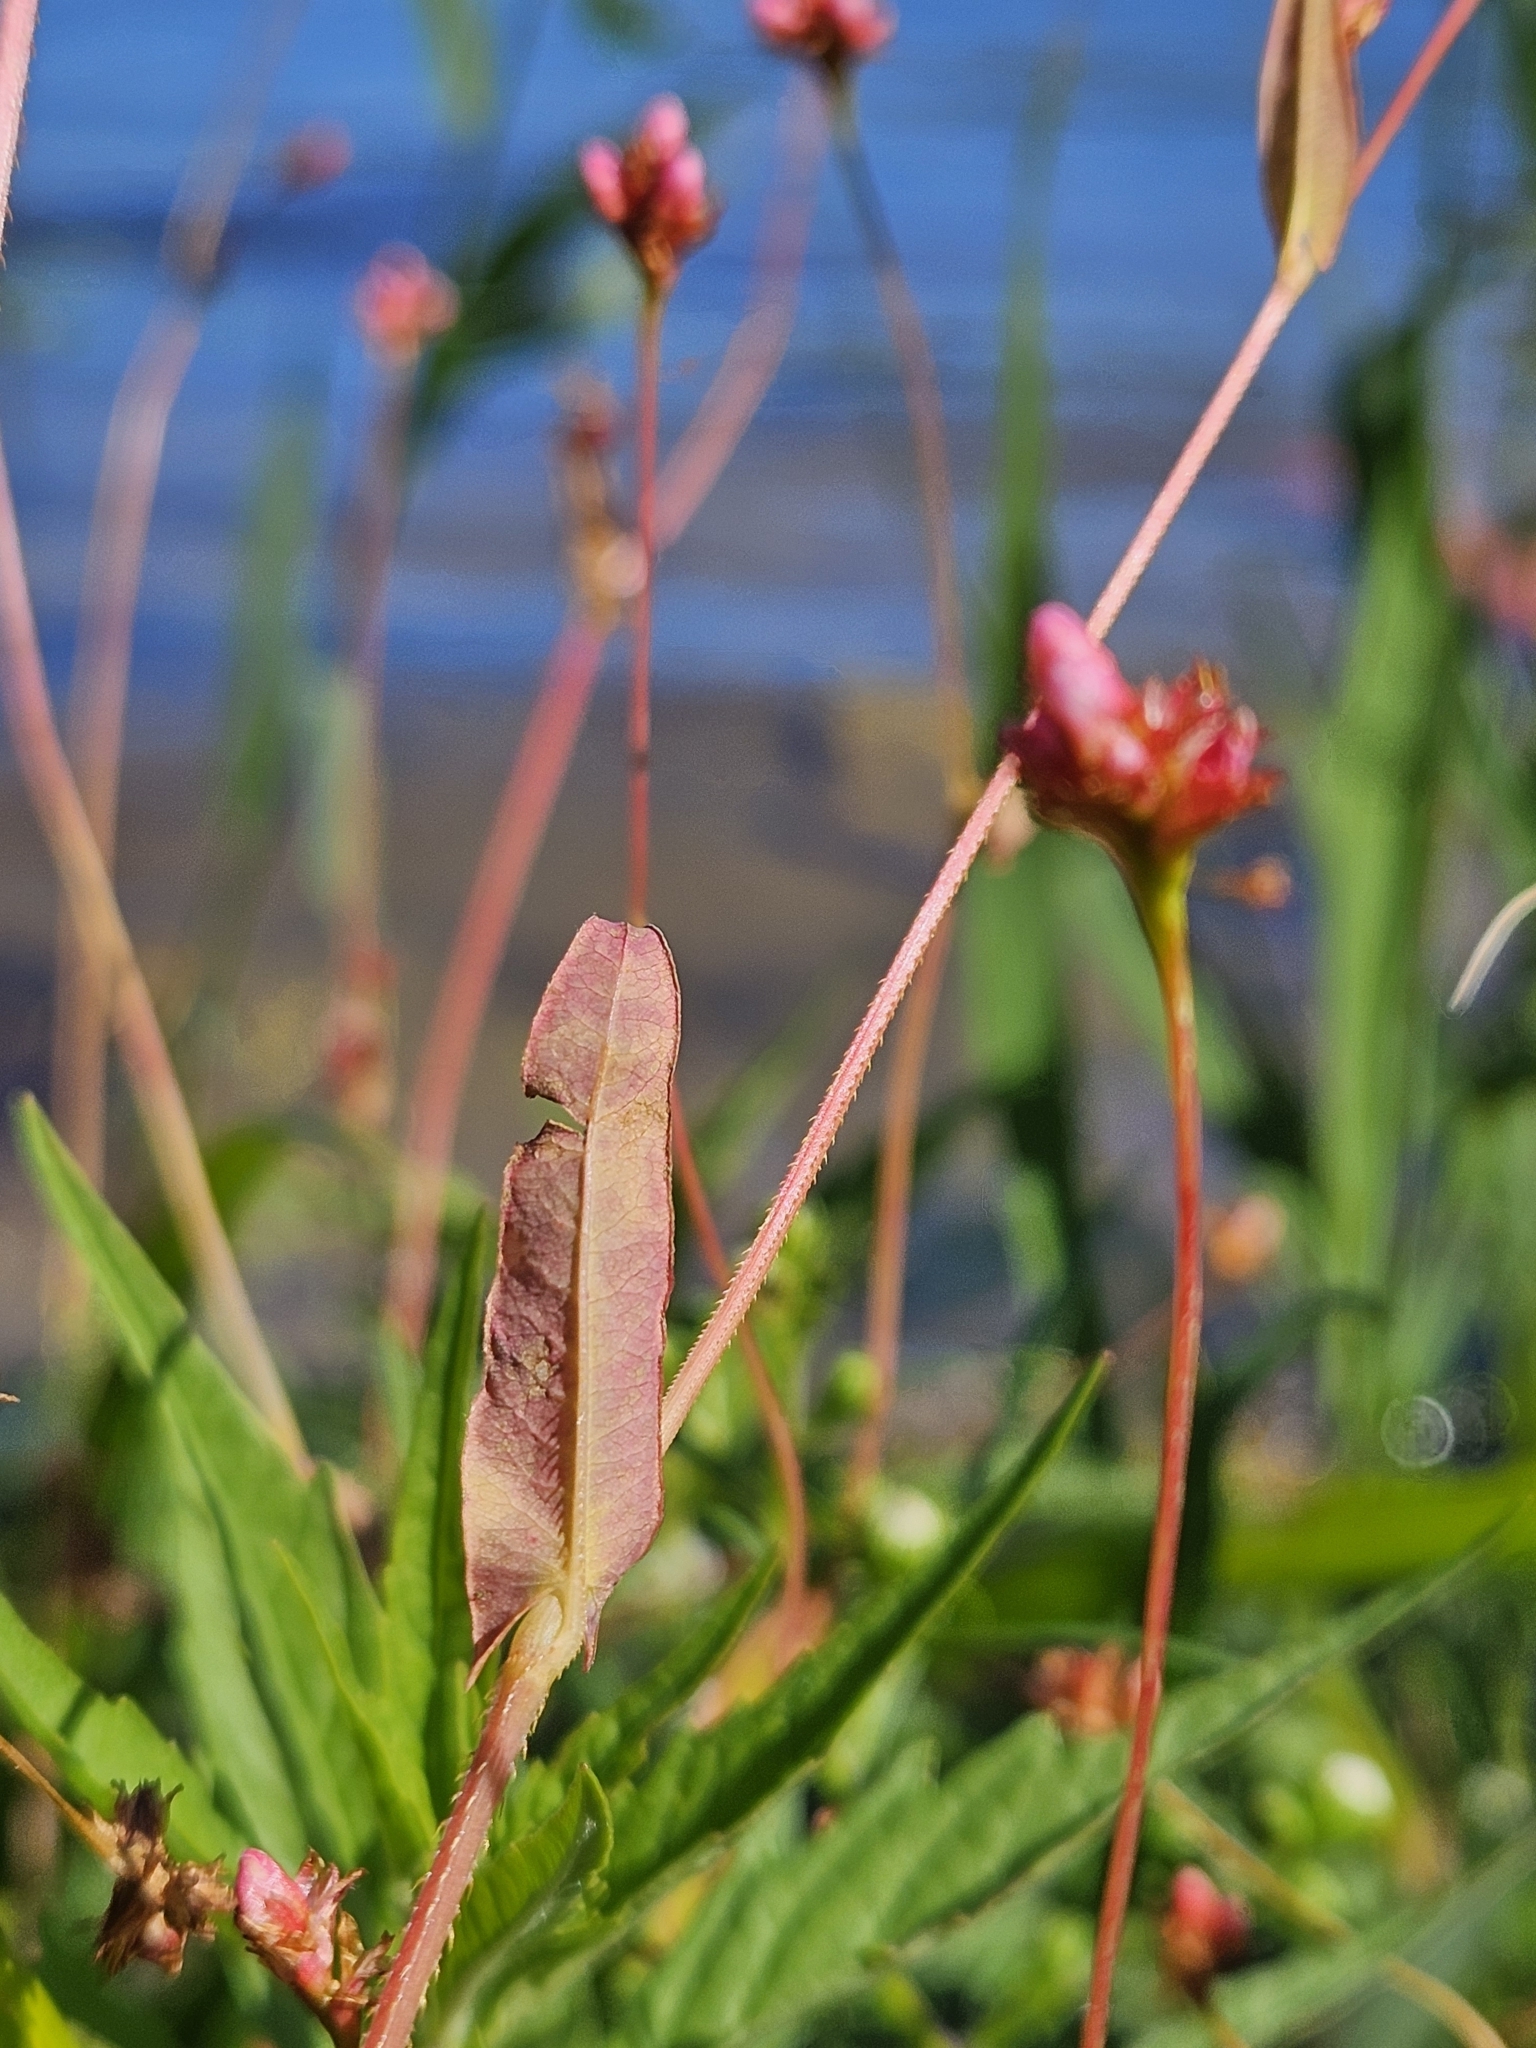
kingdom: Plantae
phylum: Tracheophyta
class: Magnoliopsida
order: Caryophyllales
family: Polygonaceae
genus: Persicaria
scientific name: Persicaria sagittata
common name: American tearthumb
